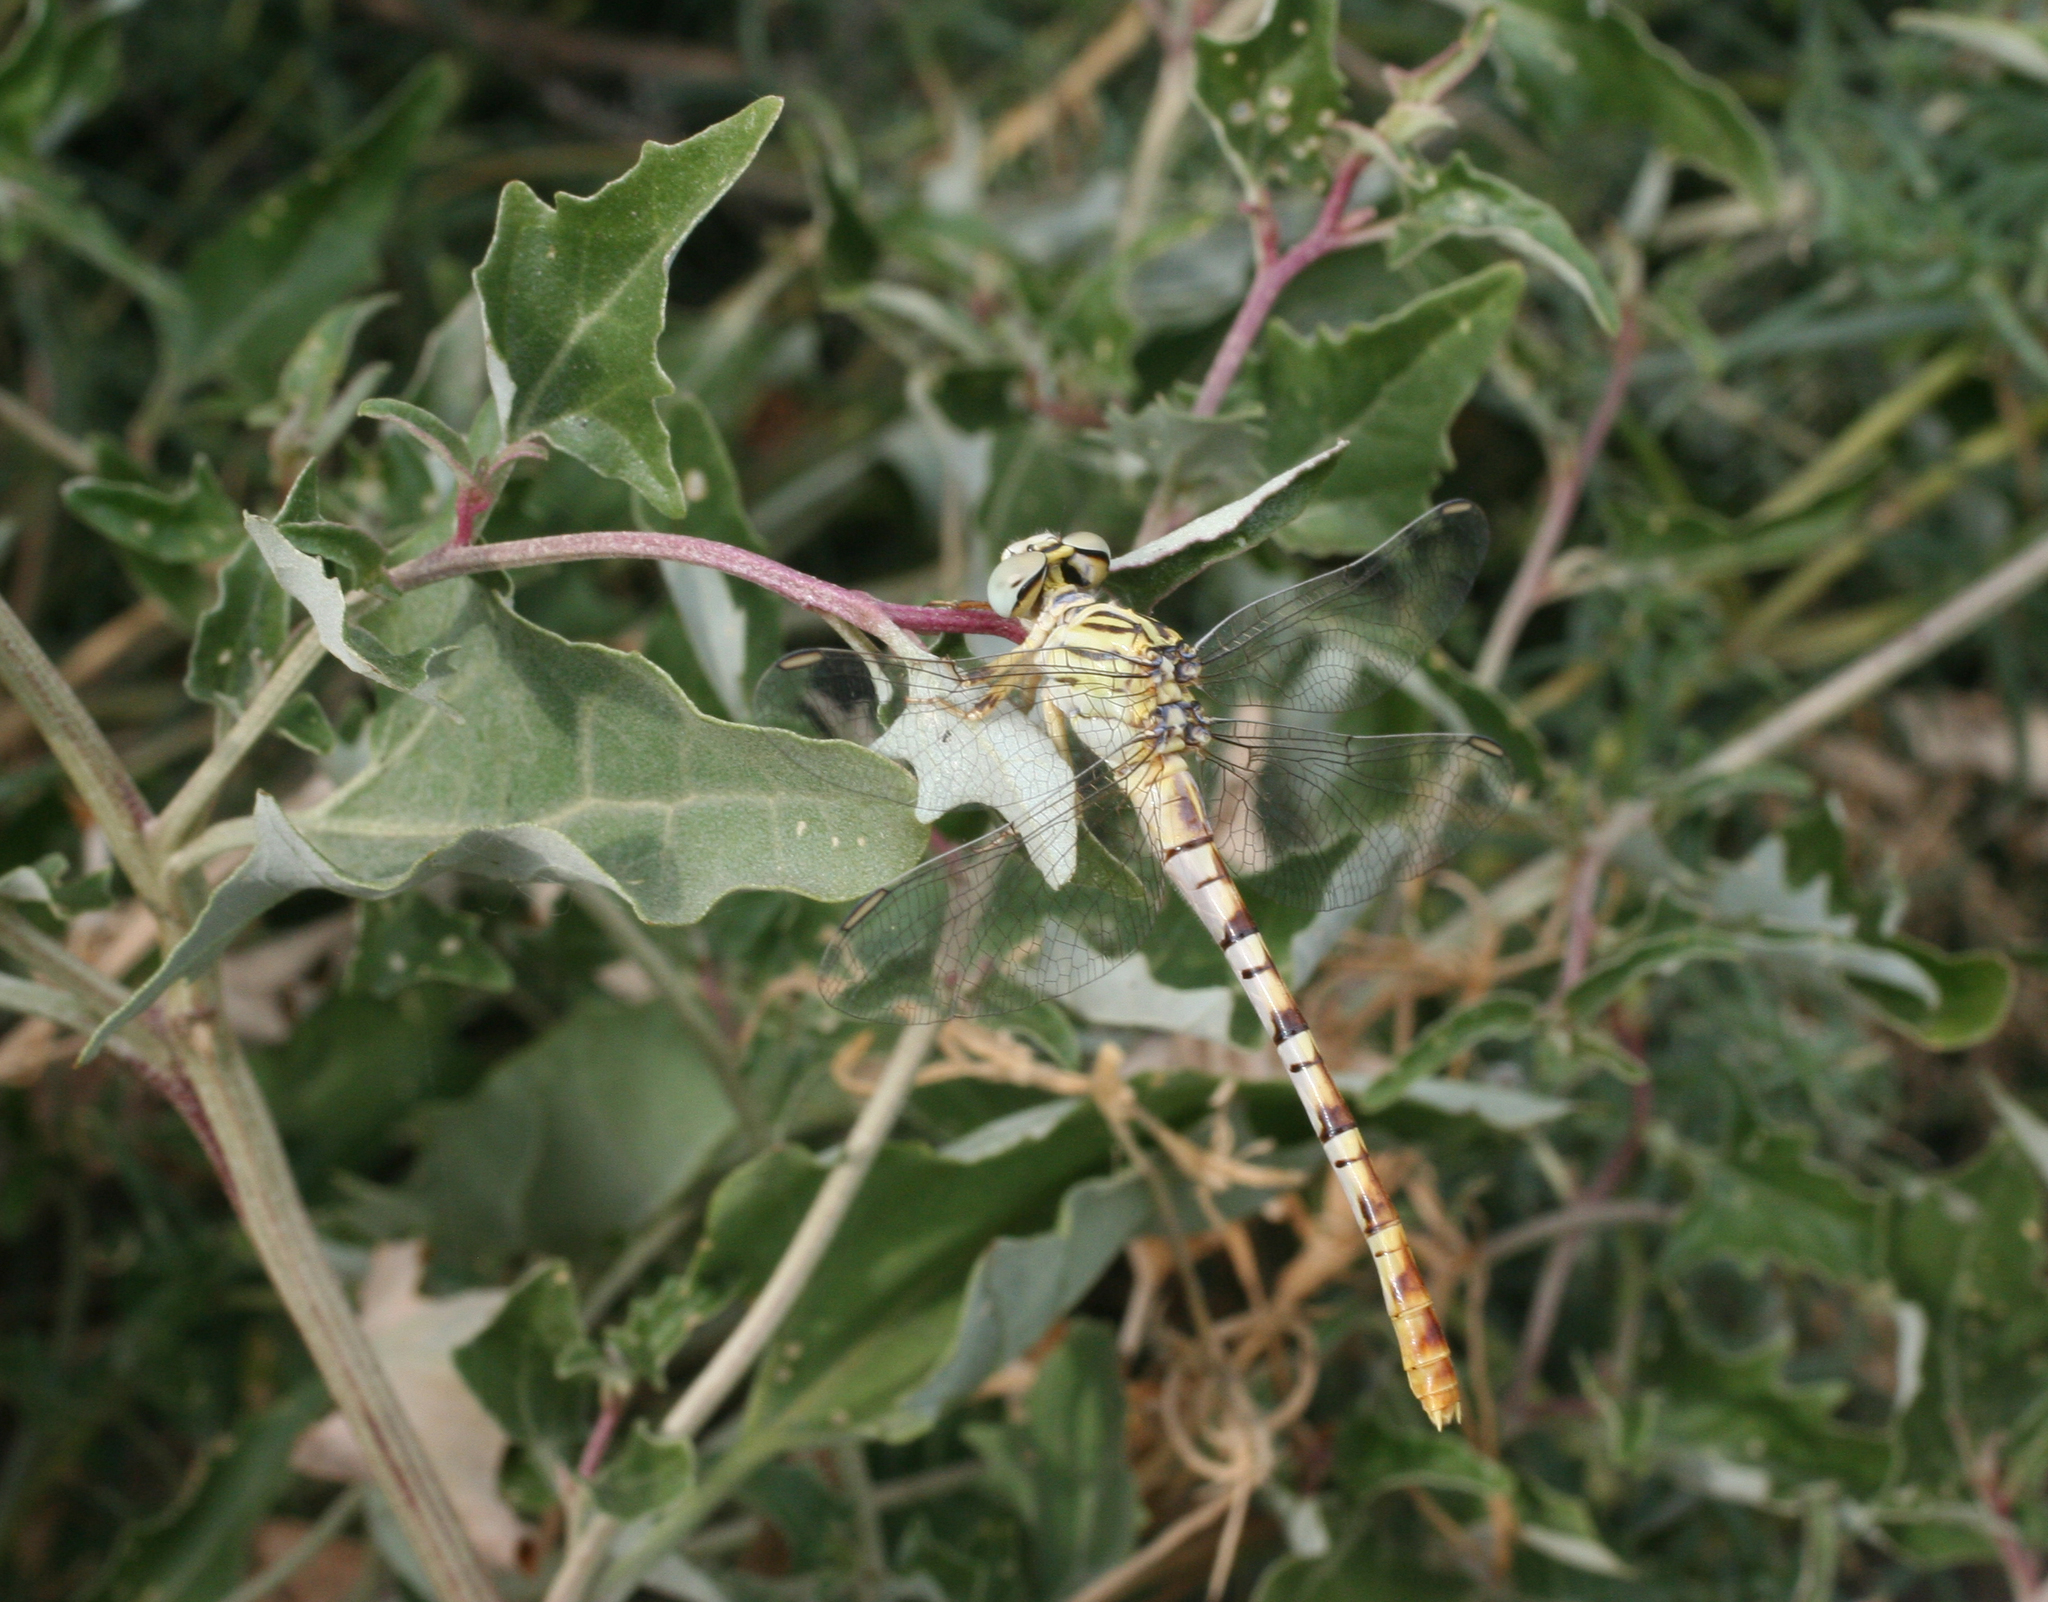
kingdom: Animalia
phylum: Arthropoda
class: Insecta
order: Odonata
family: Gomphidae
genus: Onychogomphus
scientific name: Onychogomphus flexuosus
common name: Waved pincertail
